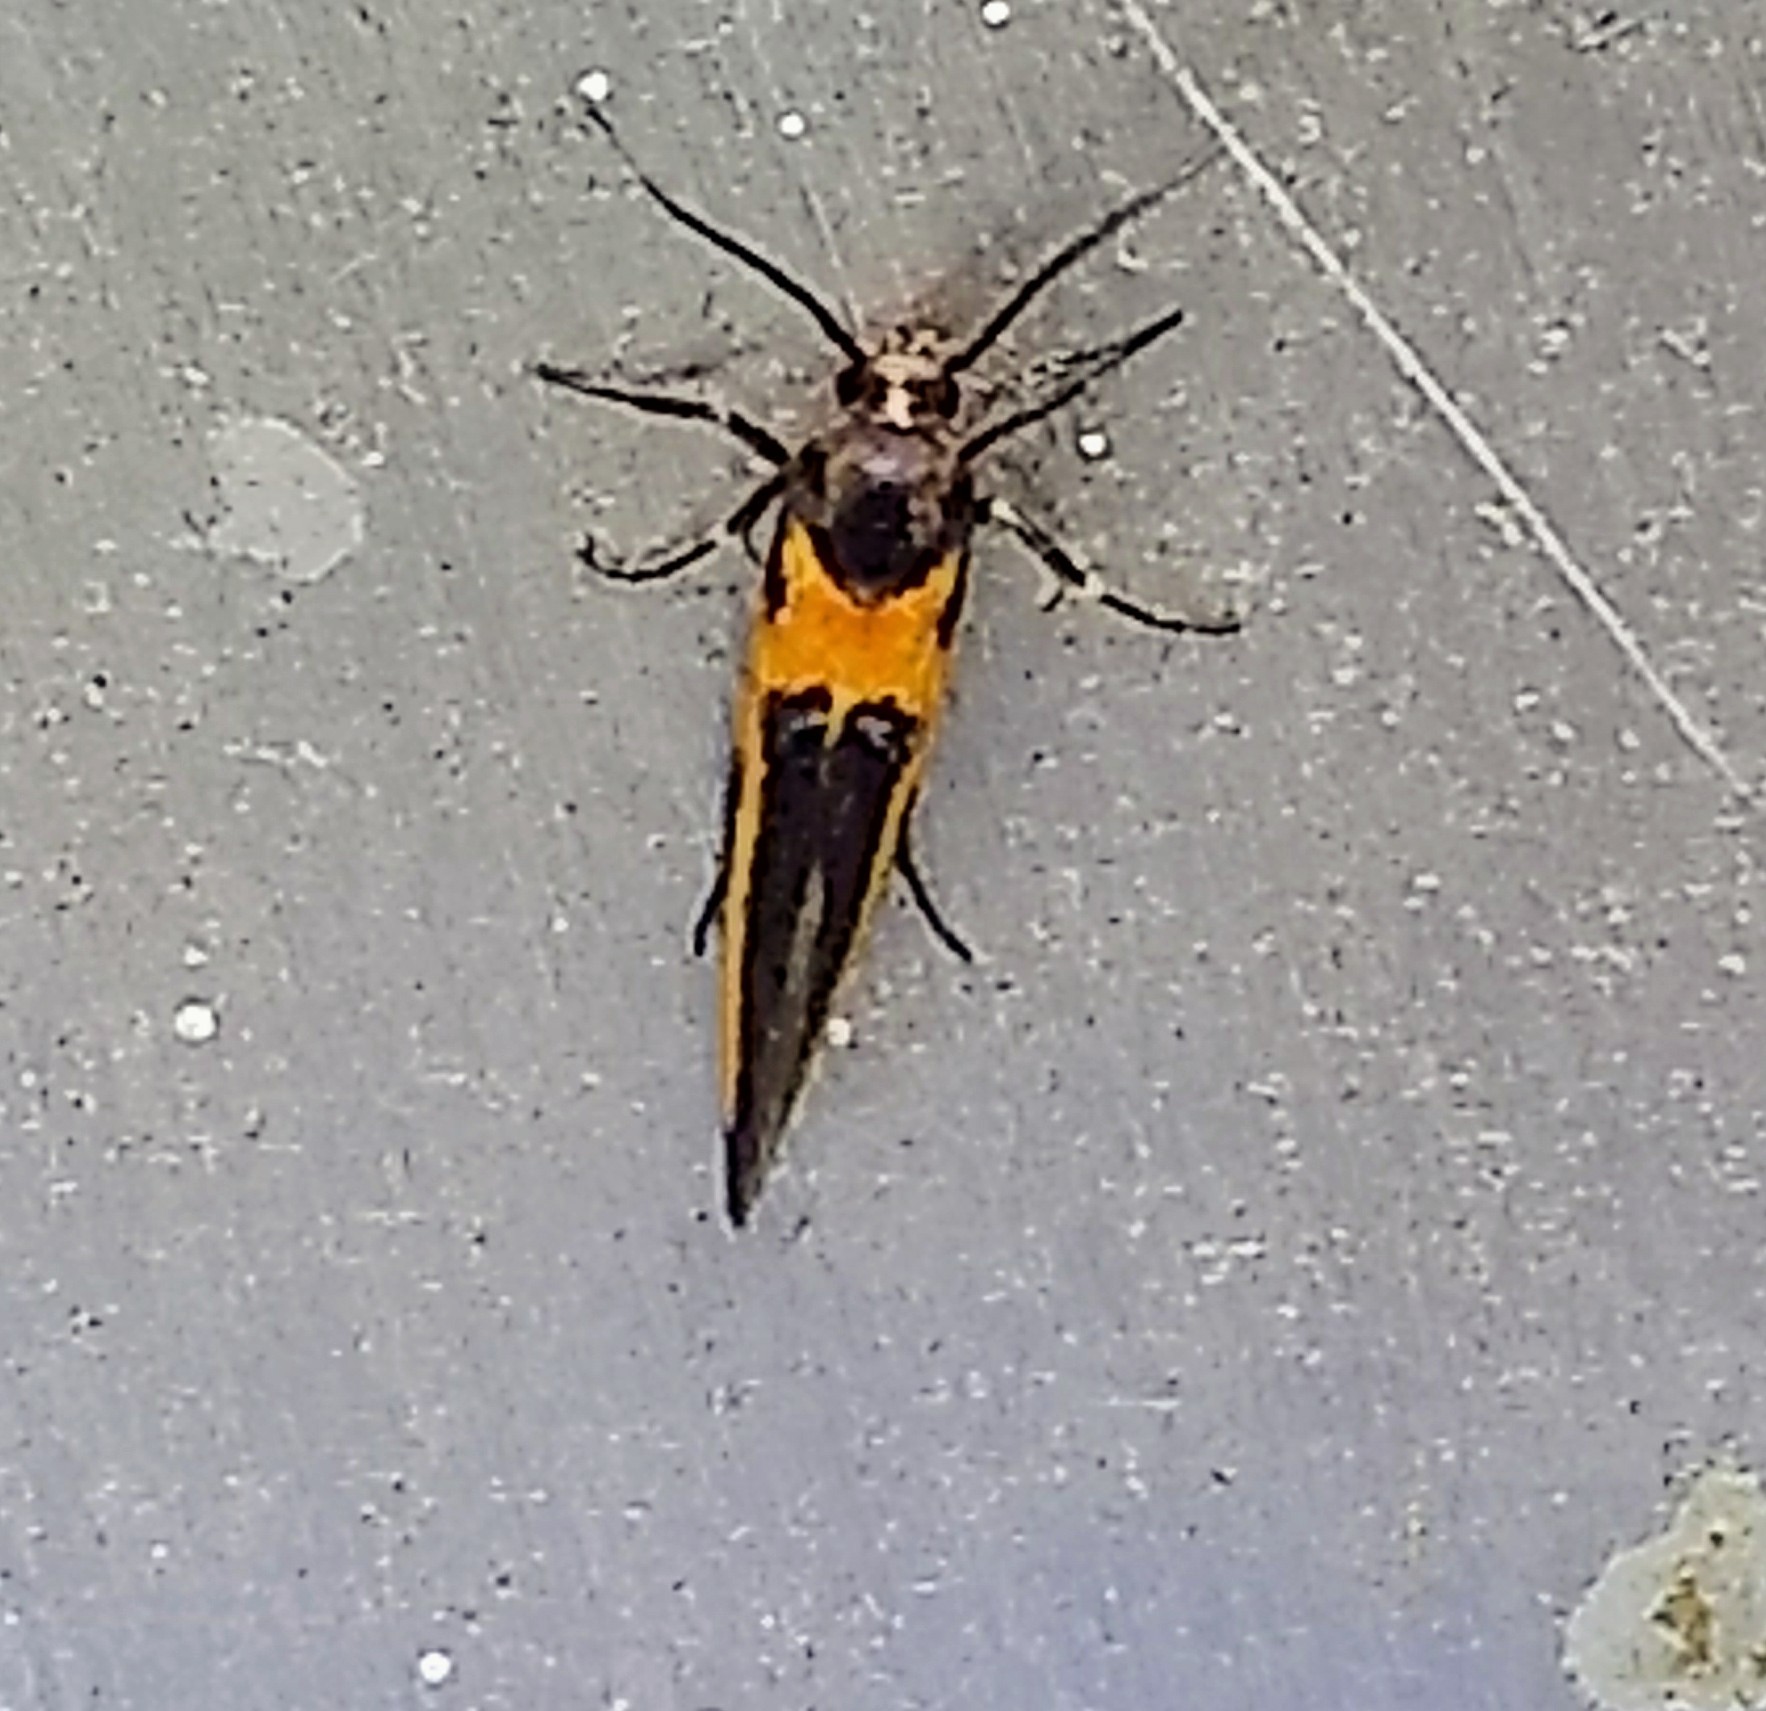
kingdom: Animalia
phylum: Arthropoda
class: Insecta
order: Lepidoptera
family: Cosmopterigidae
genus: Euclemensia
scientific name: Euclemensia bassettella
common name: Kermes scale moth
